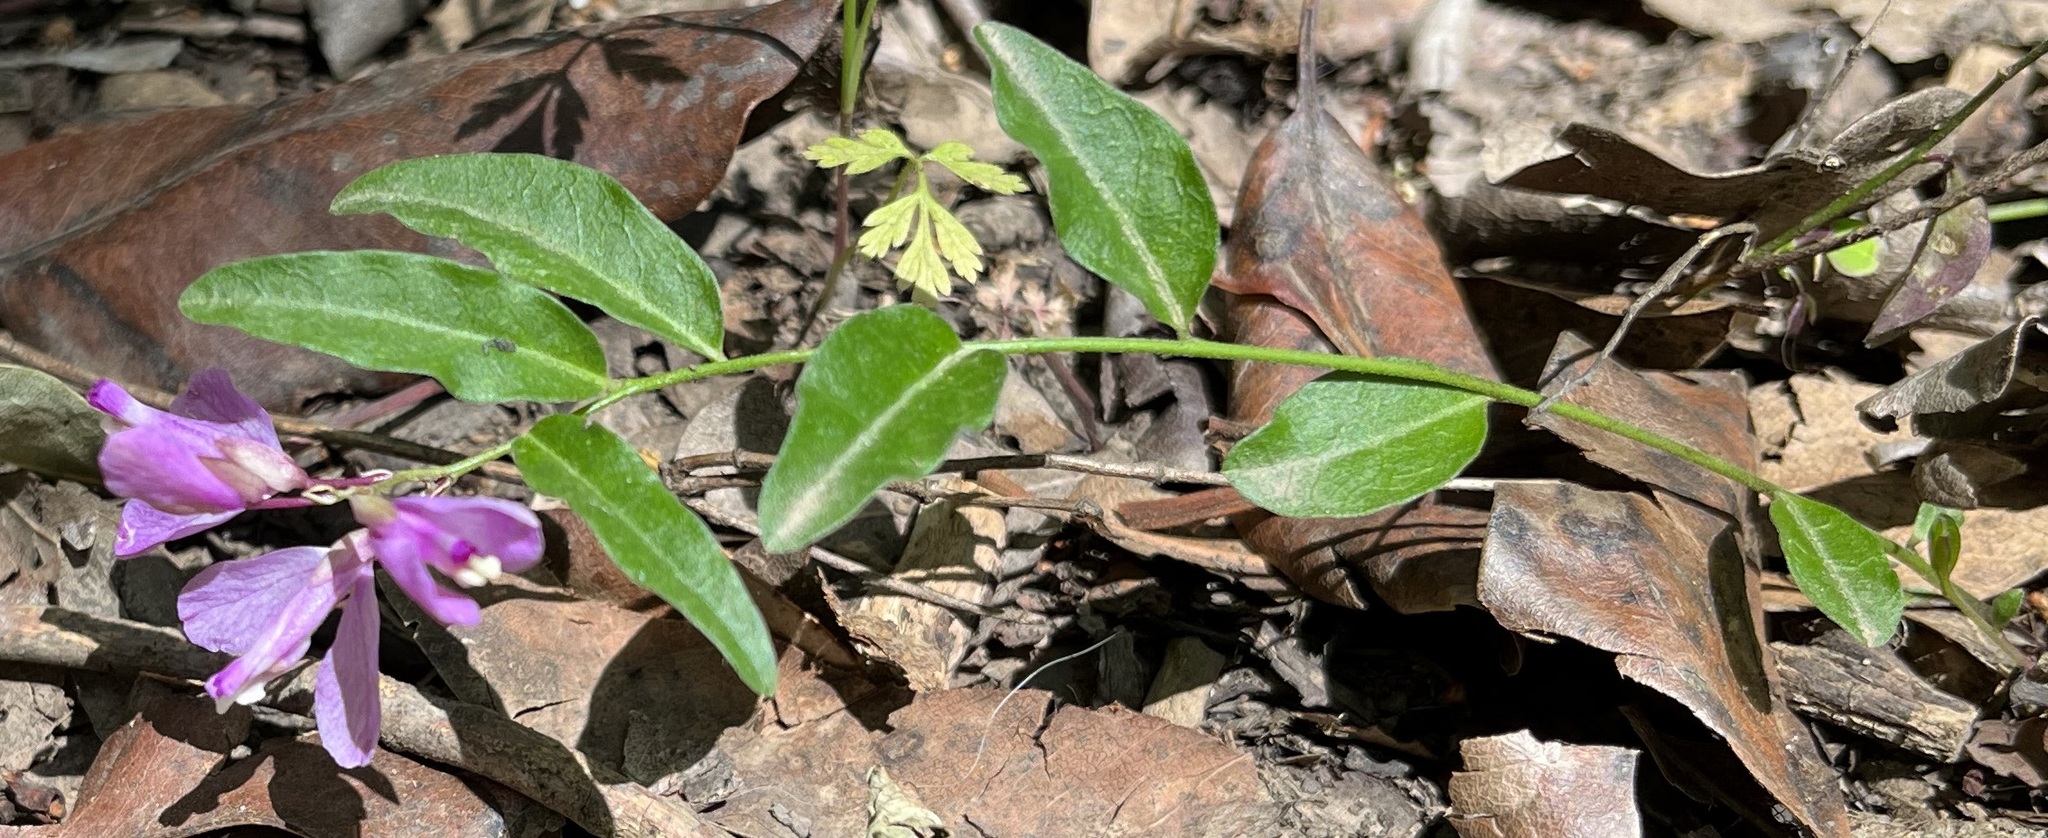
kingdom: Plantae
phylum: Tracheophyta
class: Magnoliopsida
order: Fabales
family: Polygalaceae
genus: Rhinotropis
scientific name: Rhinotropis californica
